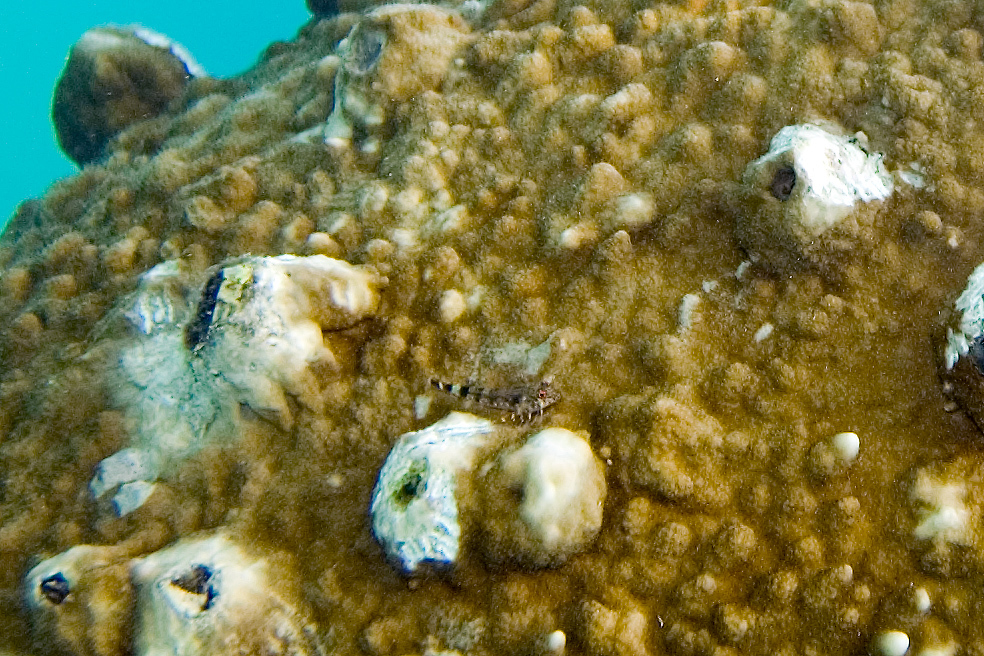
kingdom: Animalia
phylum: Chordata
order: Perciformes
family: Tripterygiidae
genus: Enneanectes
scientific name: Enneanectes deloachorum
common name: Two-bar triplefin
